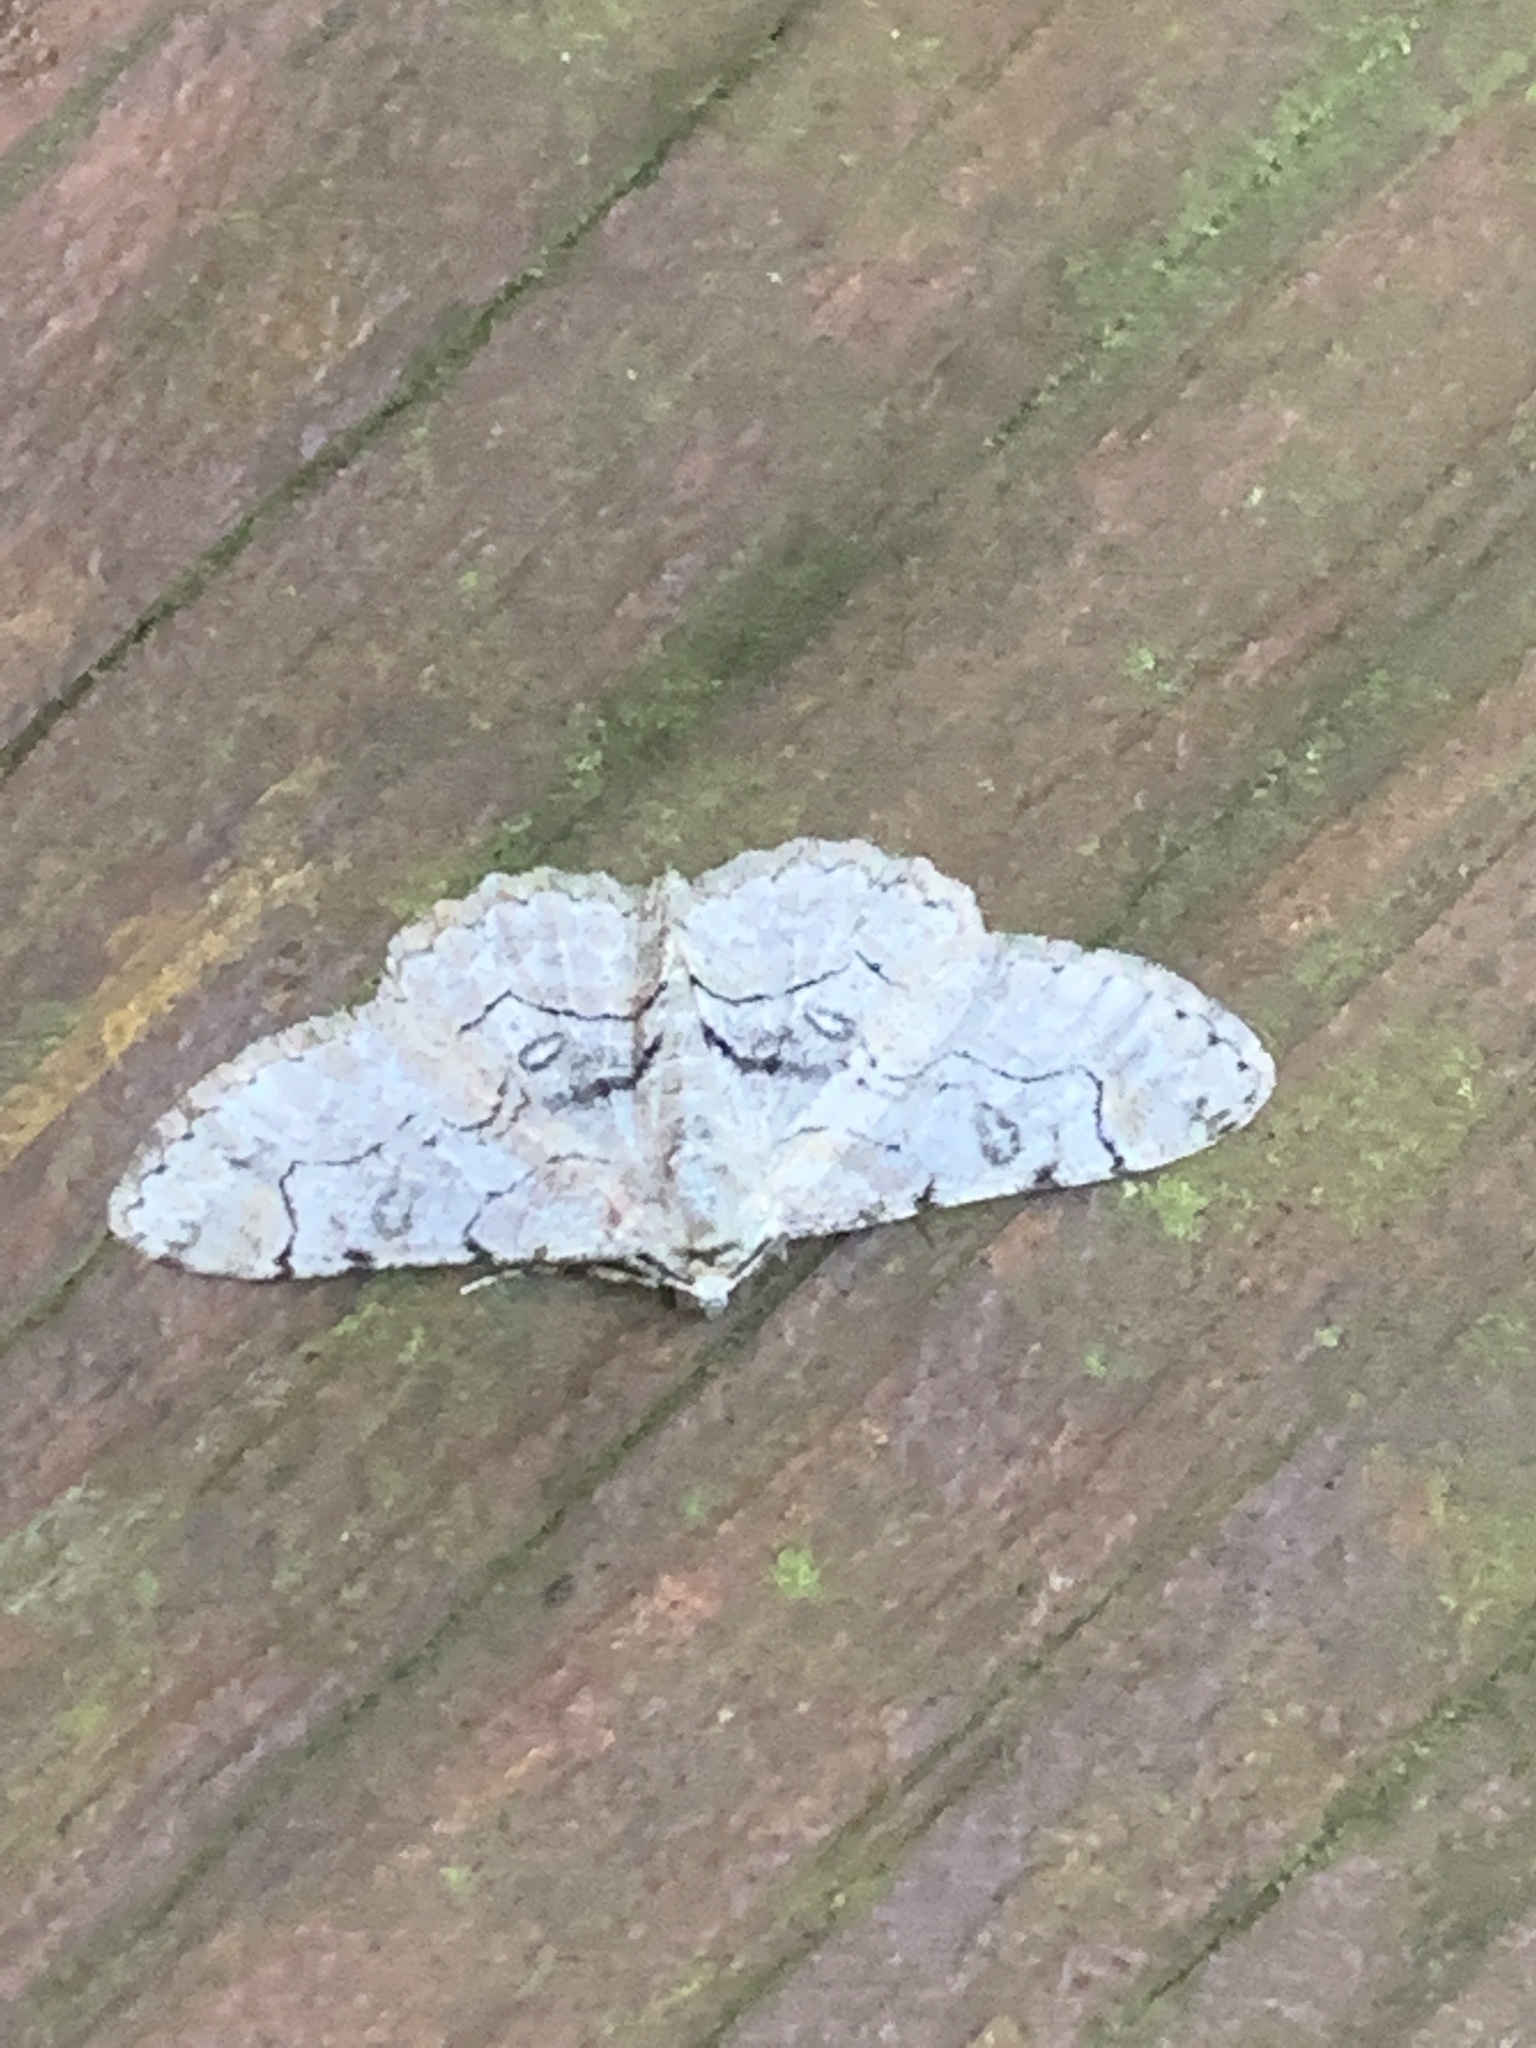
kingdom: Animalia
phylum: Arthropoda
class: Insecta
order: Lepidoptera
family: Geometridae
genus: Iridopsis
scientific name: Iridopsis larvaria
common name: Bent-line gray
